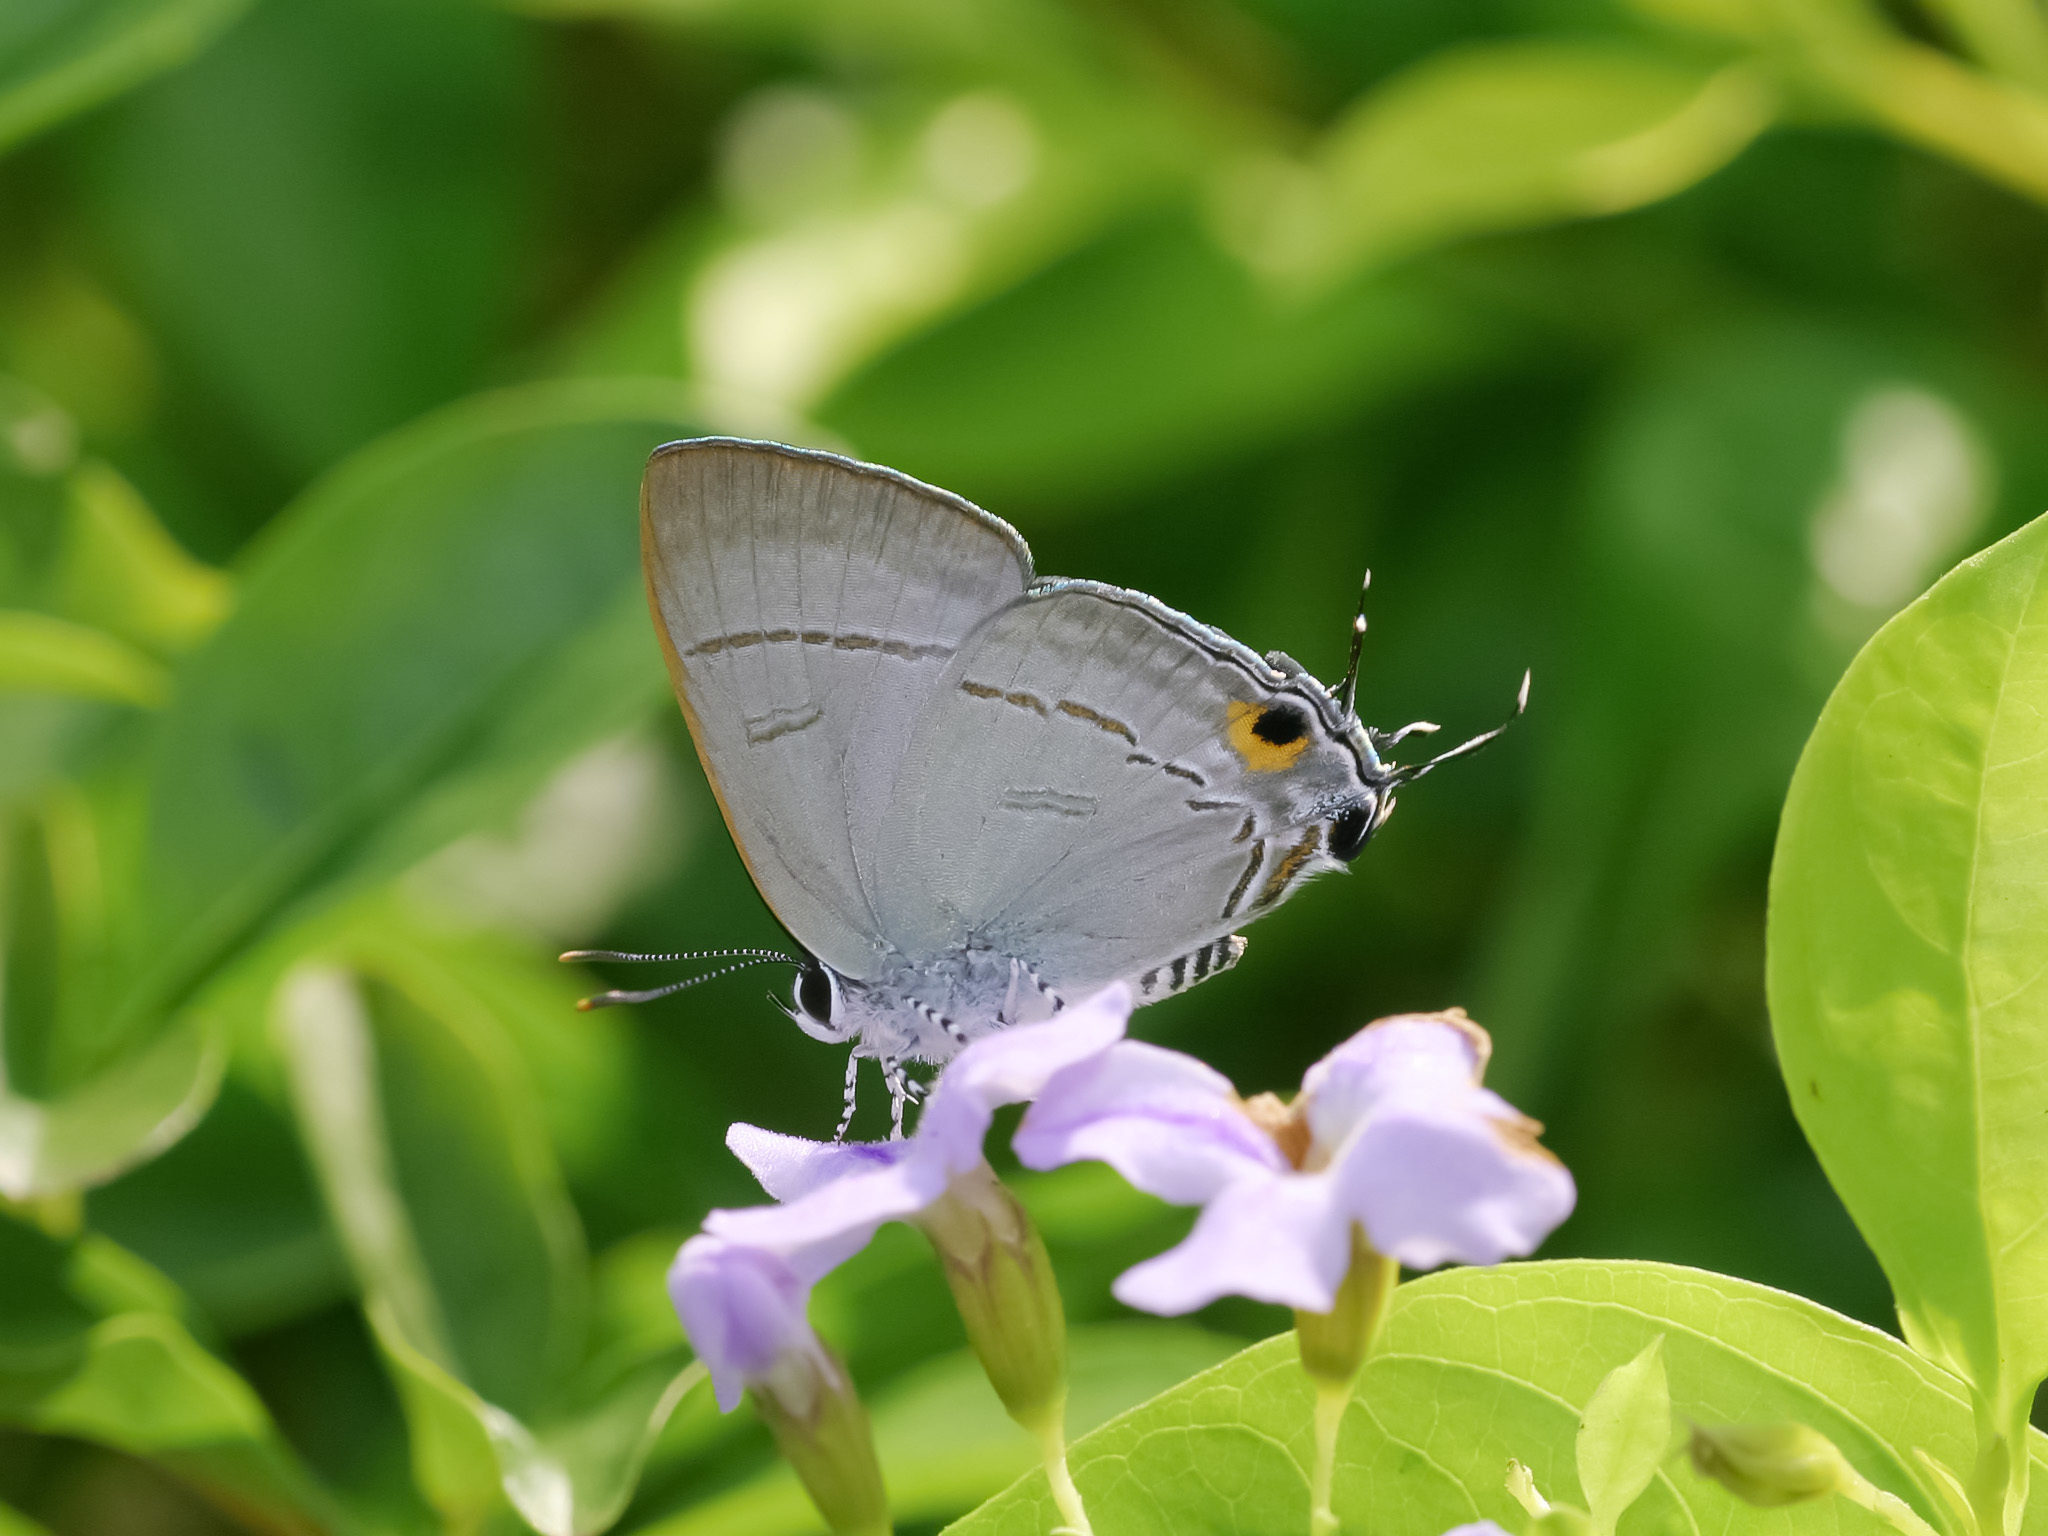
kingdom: Animalia
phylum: Arthropoda
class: Insecta
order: Lepidoptera
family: Lycaenidae
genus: Hypolycaena
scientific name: Hypolycaena erylus
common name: Common tit
